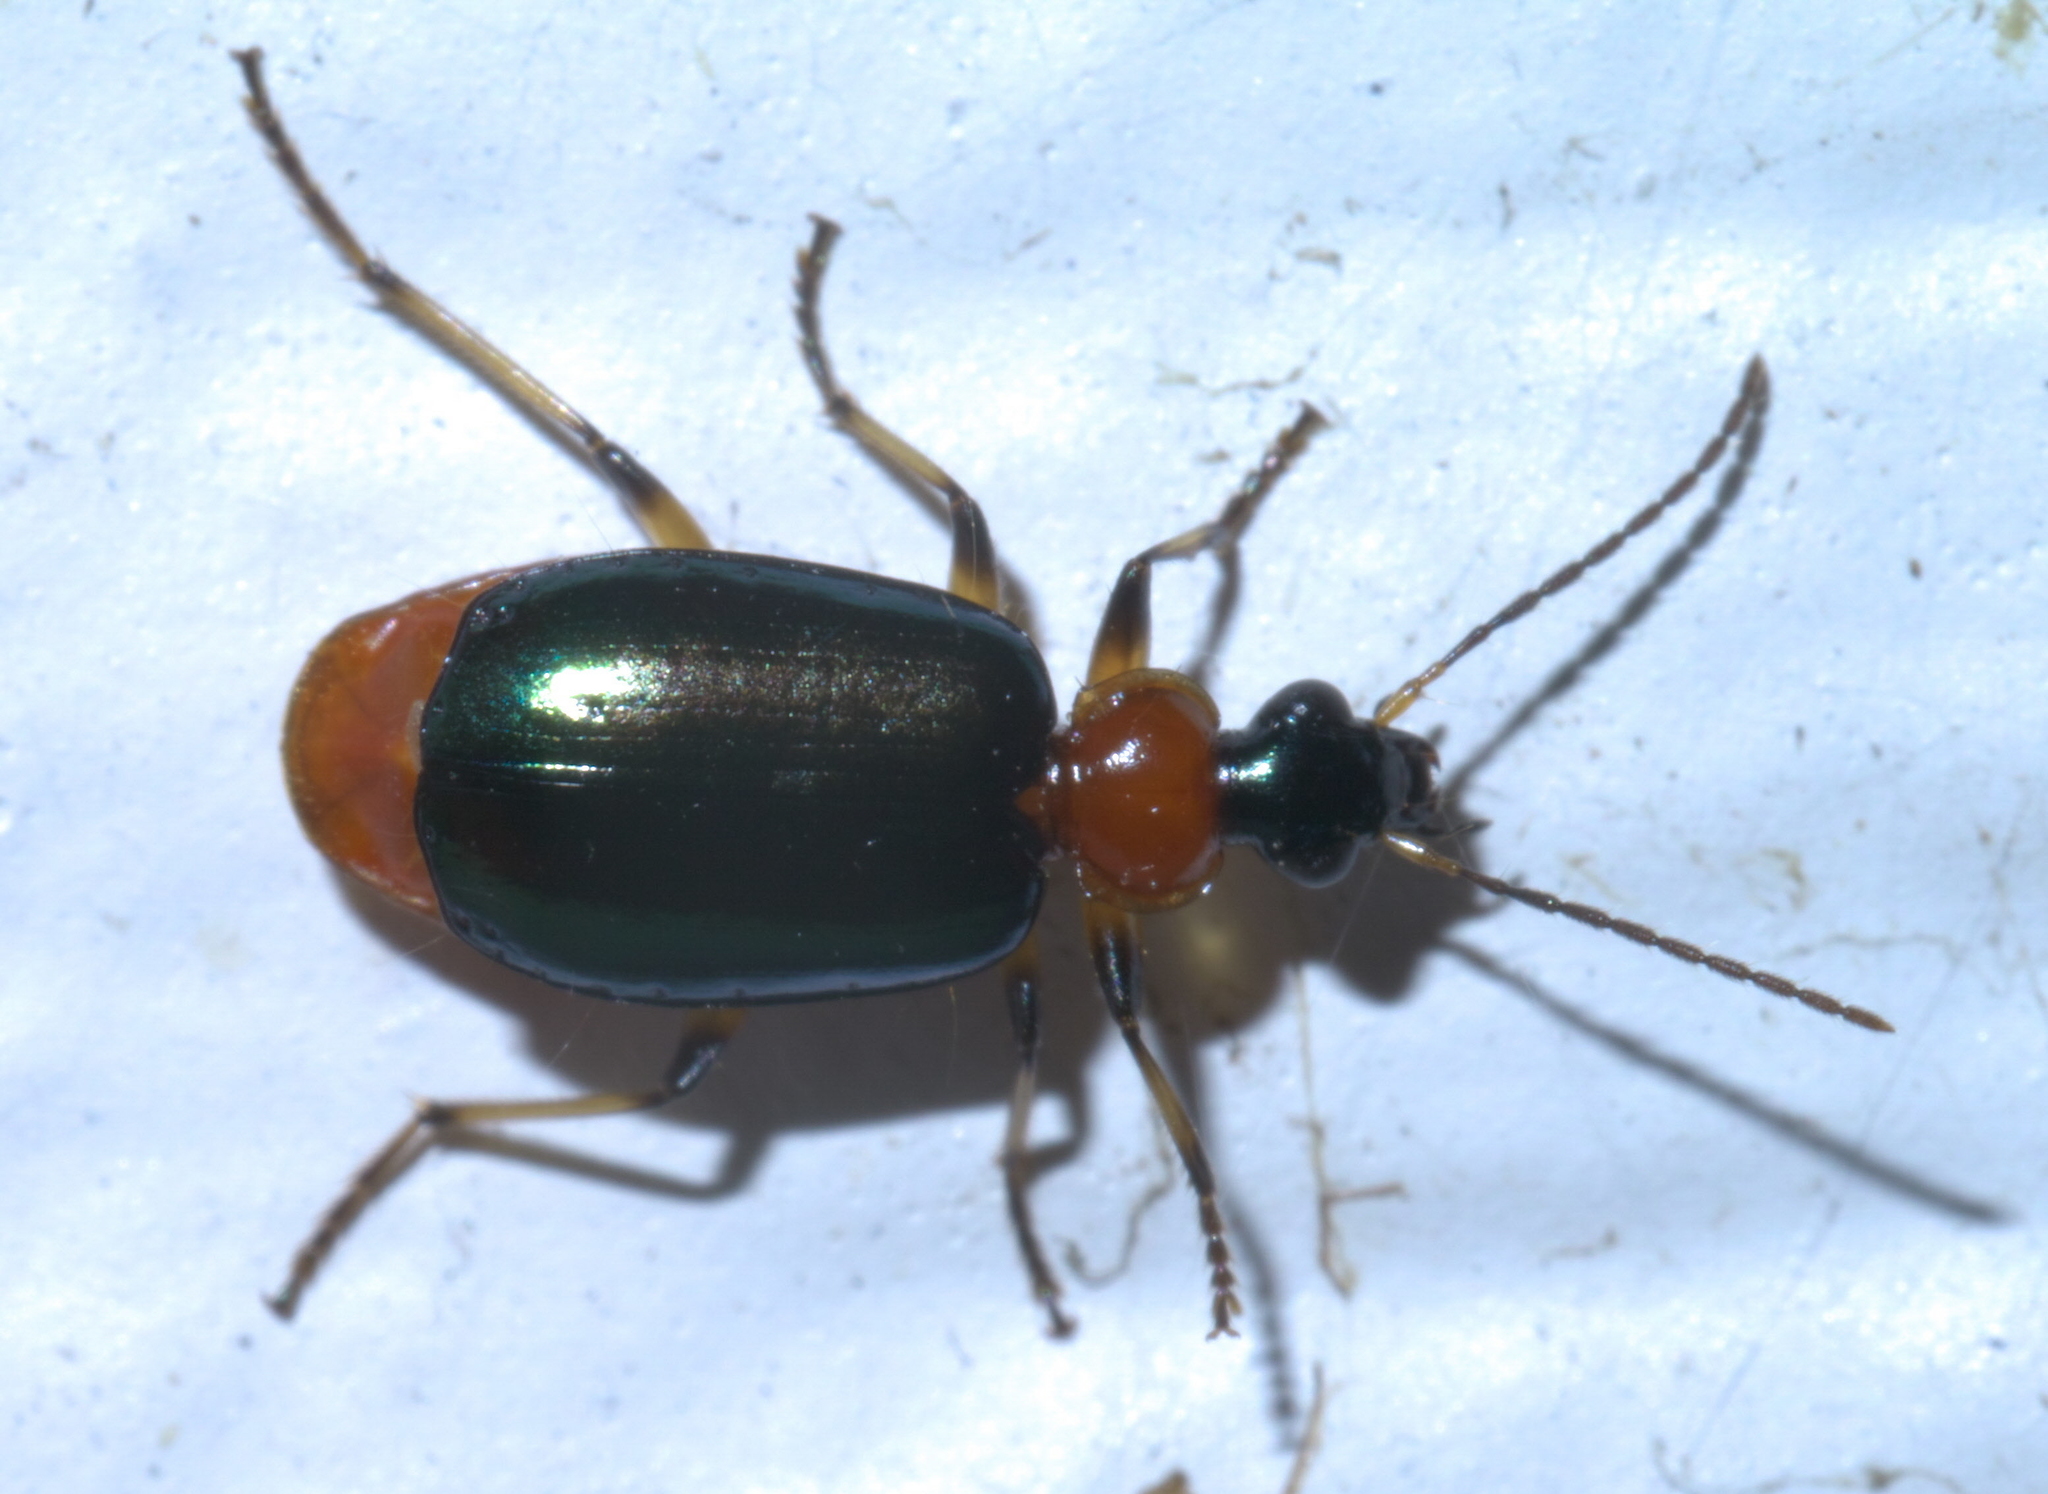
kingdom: Animalia
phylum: Arthropoda
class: Insecta
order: Coleoptera
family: Carabidae
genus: Lebia
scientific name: Lebia viridipennis
